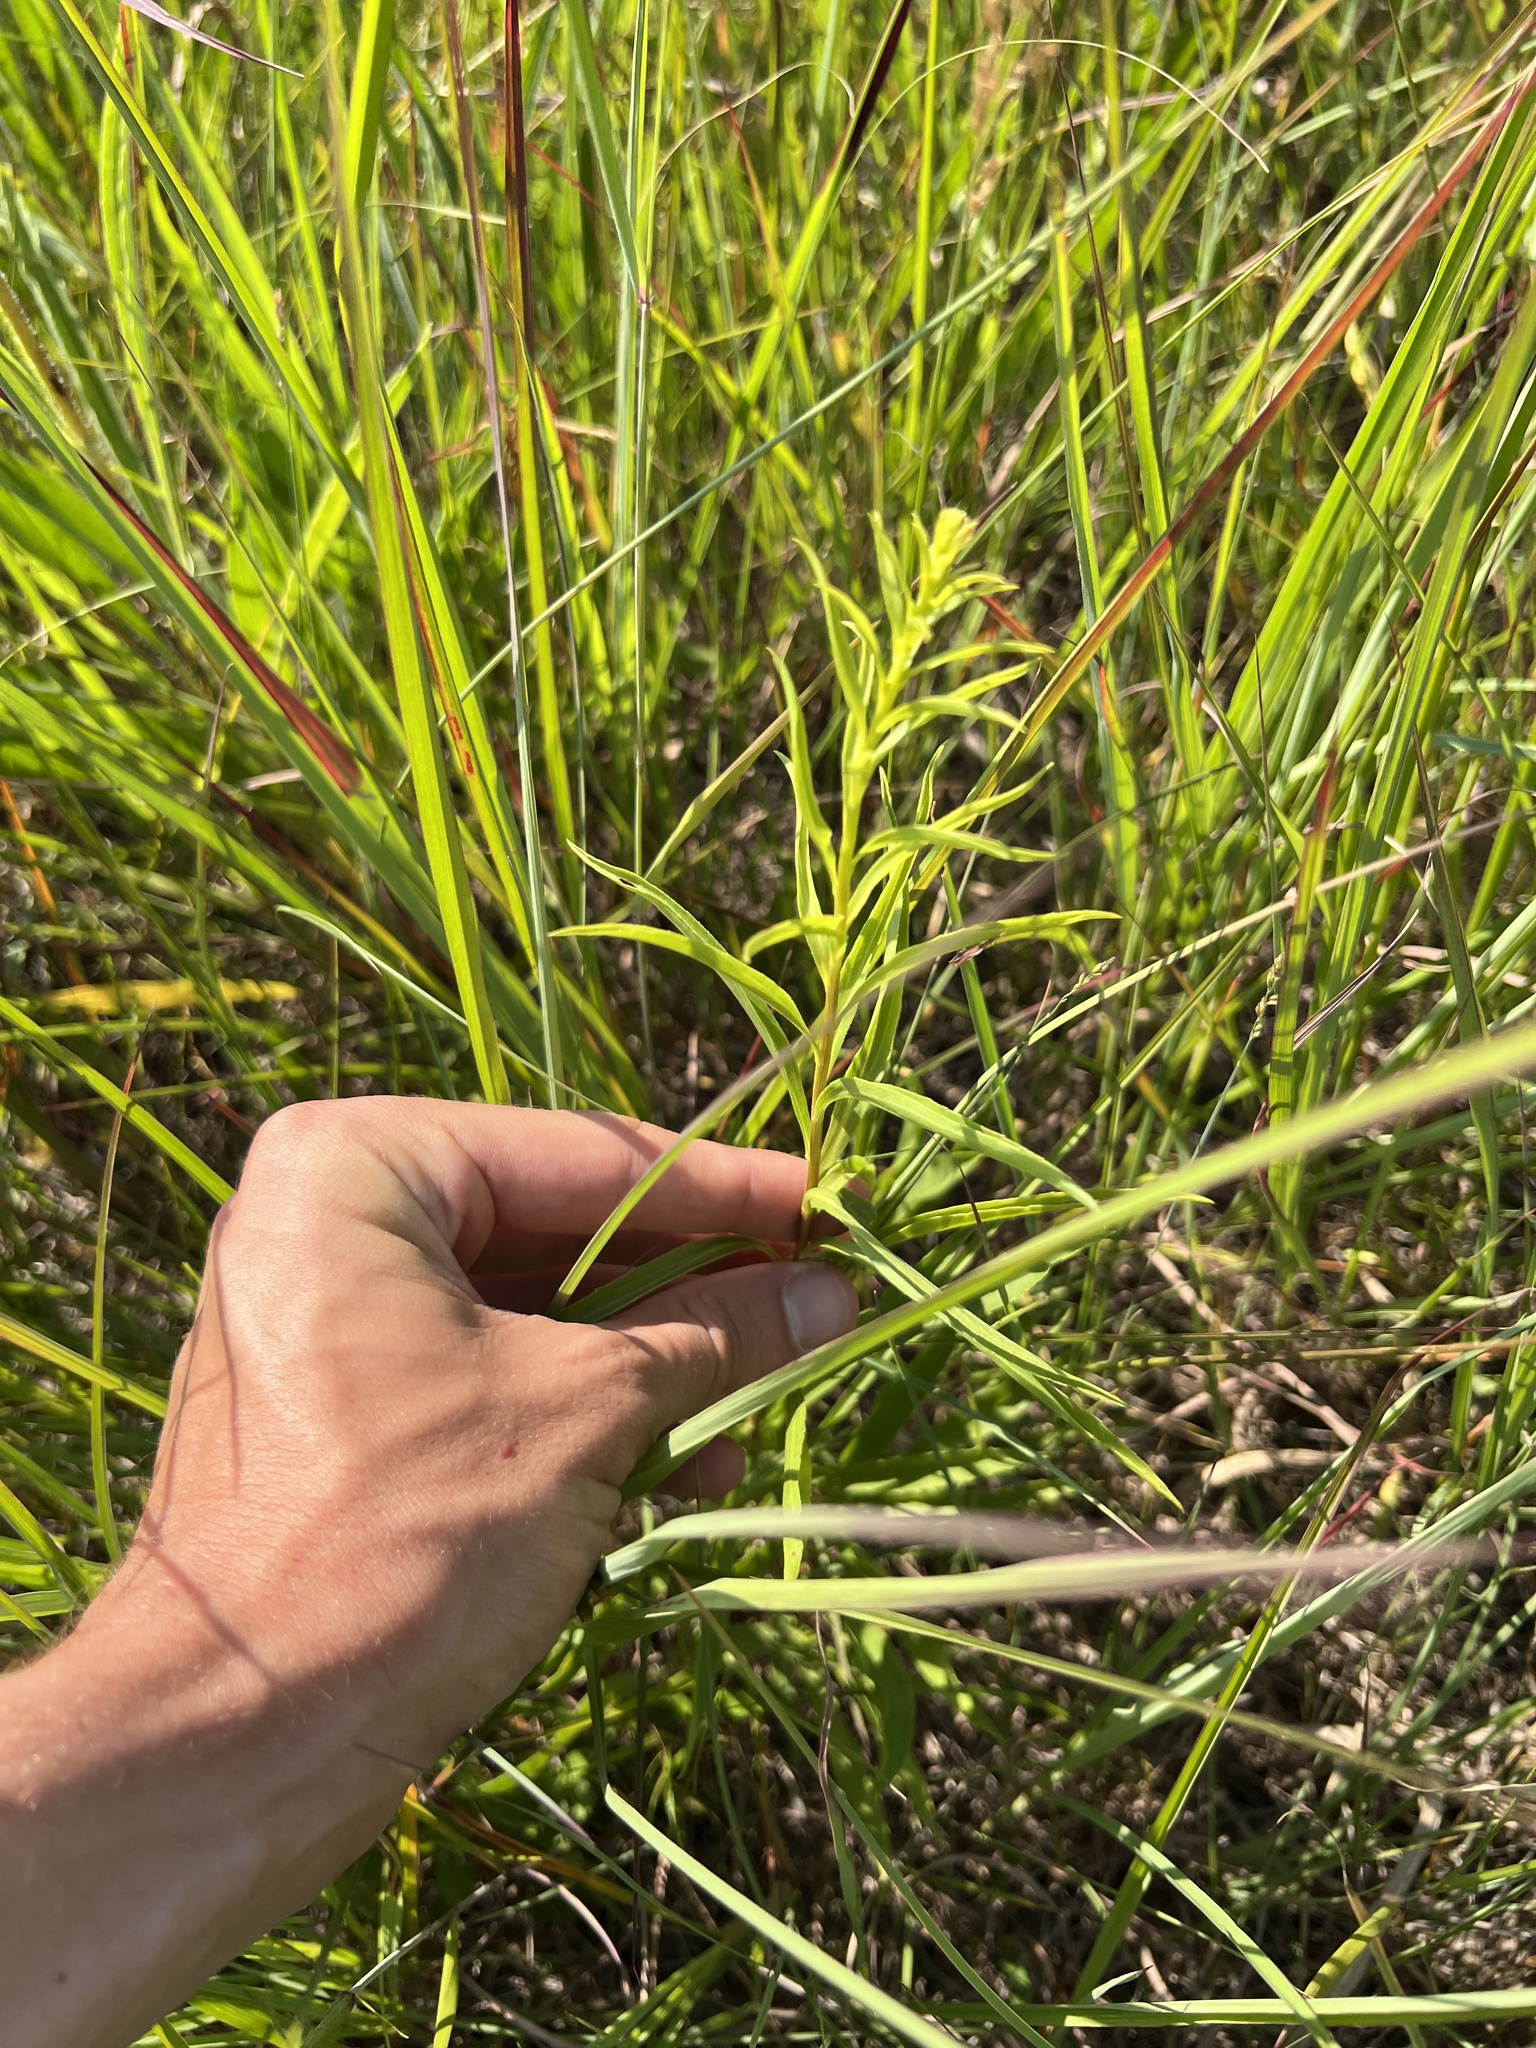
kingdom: Plantae
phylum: Tracheophyta
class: Magnoliopsida
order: Asterales
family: Asteraceae
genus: Solidago
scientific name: Solidago missouriensis
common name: Prairie goldenrod
